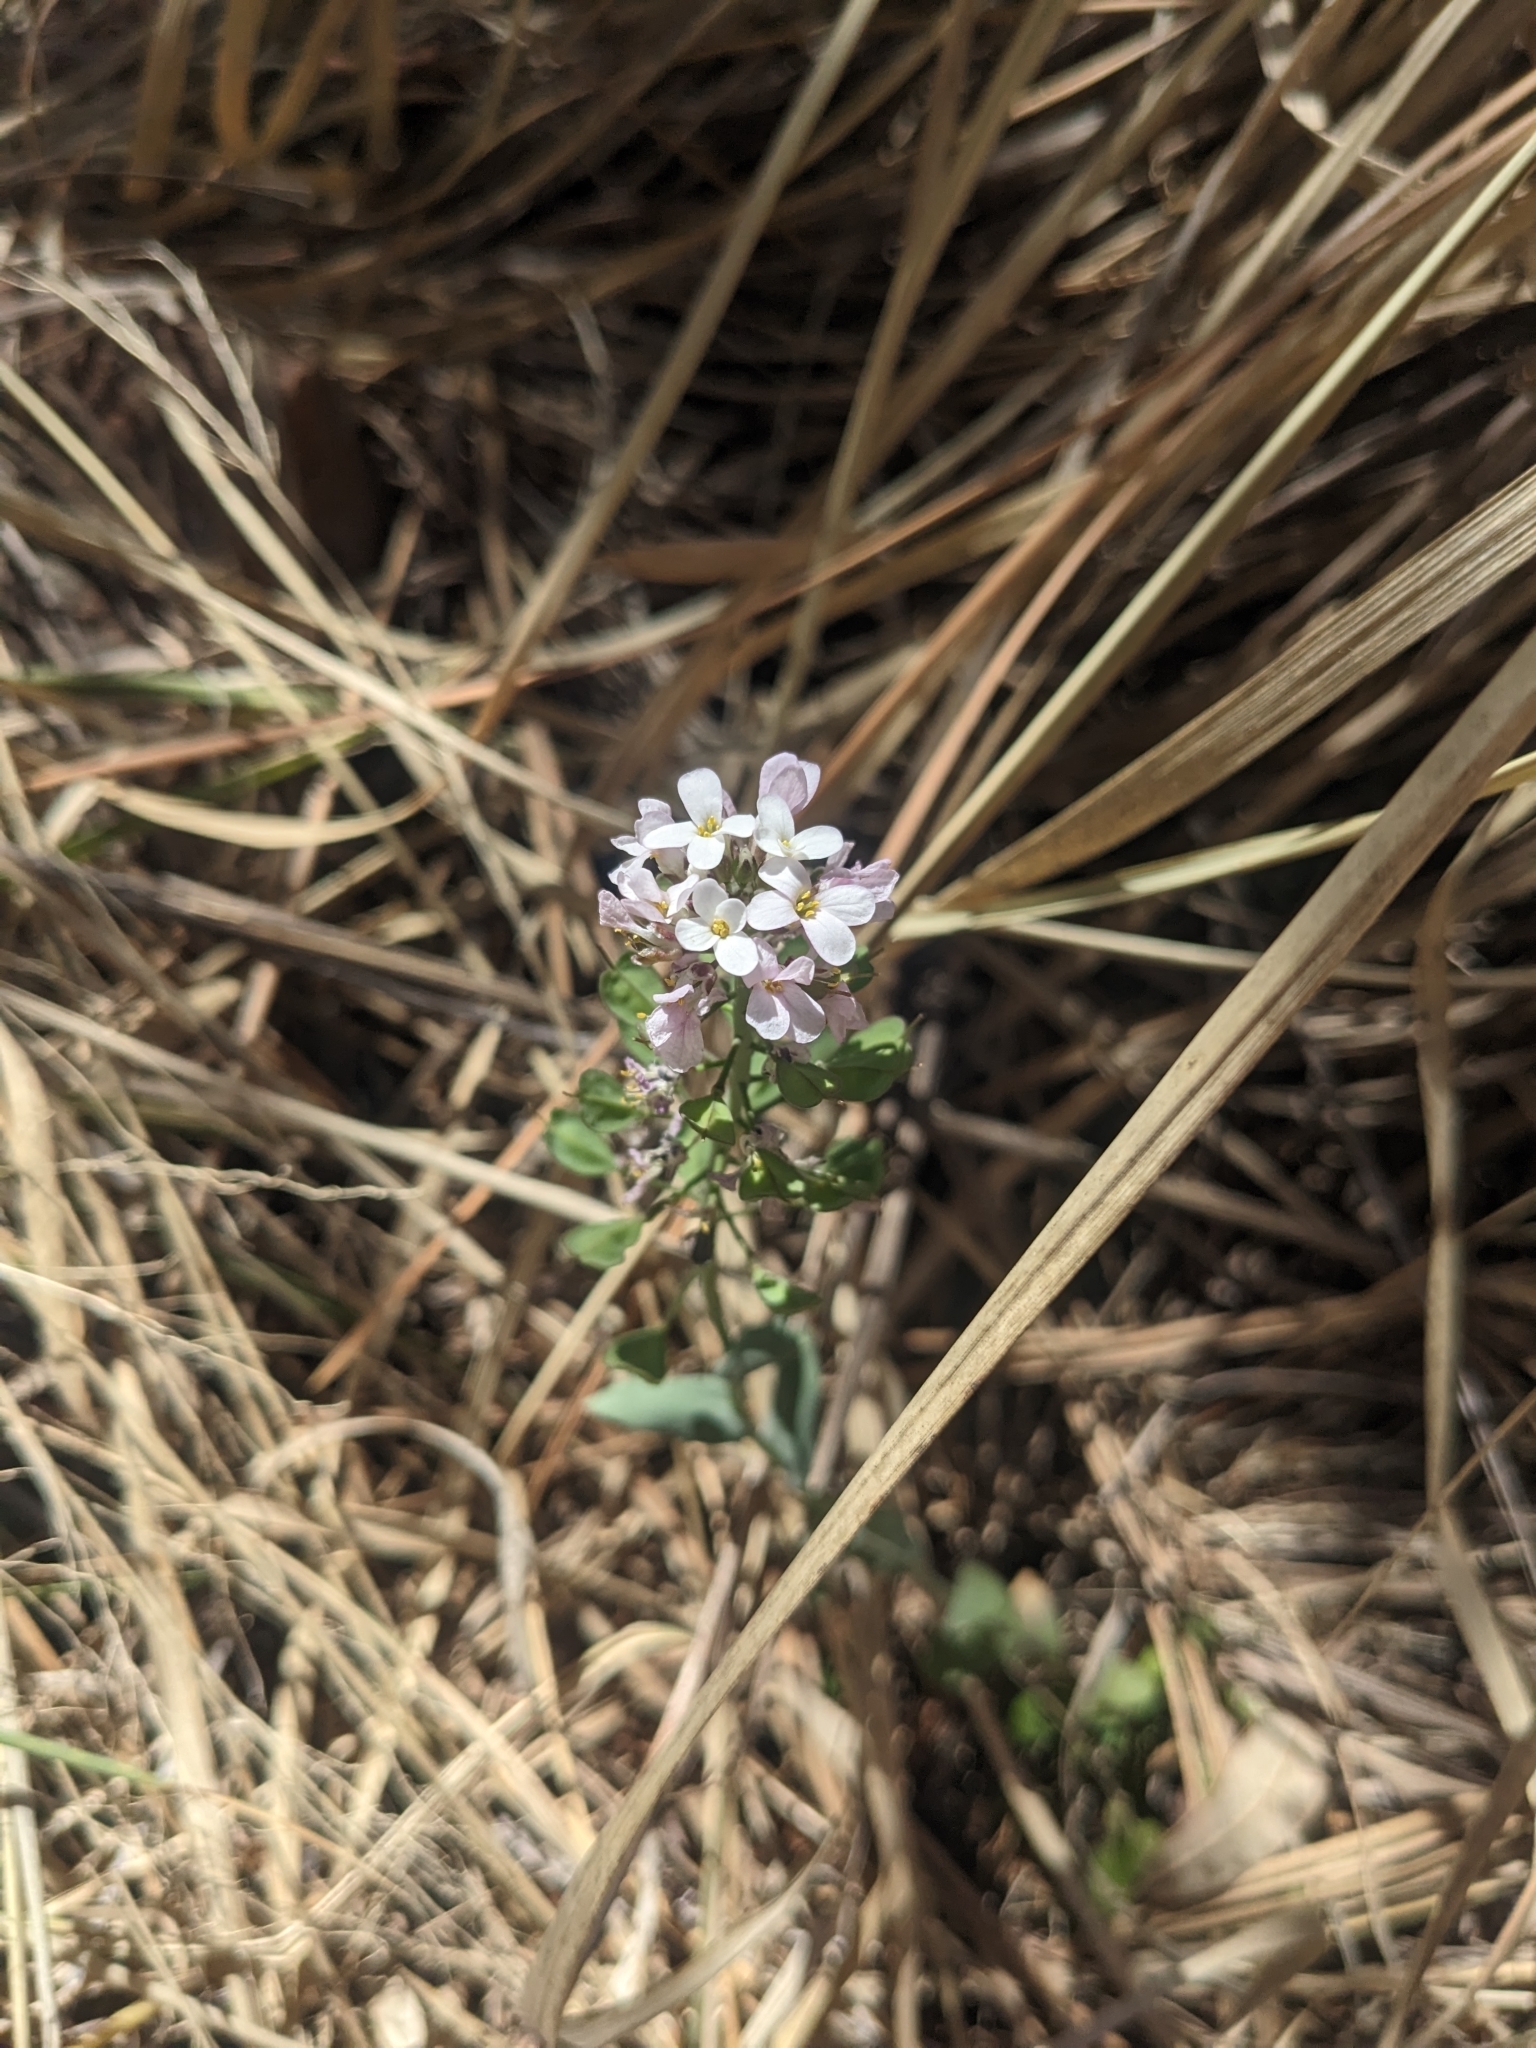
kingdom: Plantae
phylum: Tracheophyta
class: Magnoliopsida
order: Brassicales
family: Brassicaceae
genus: Noccaea
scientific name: Noccaea fendleri
